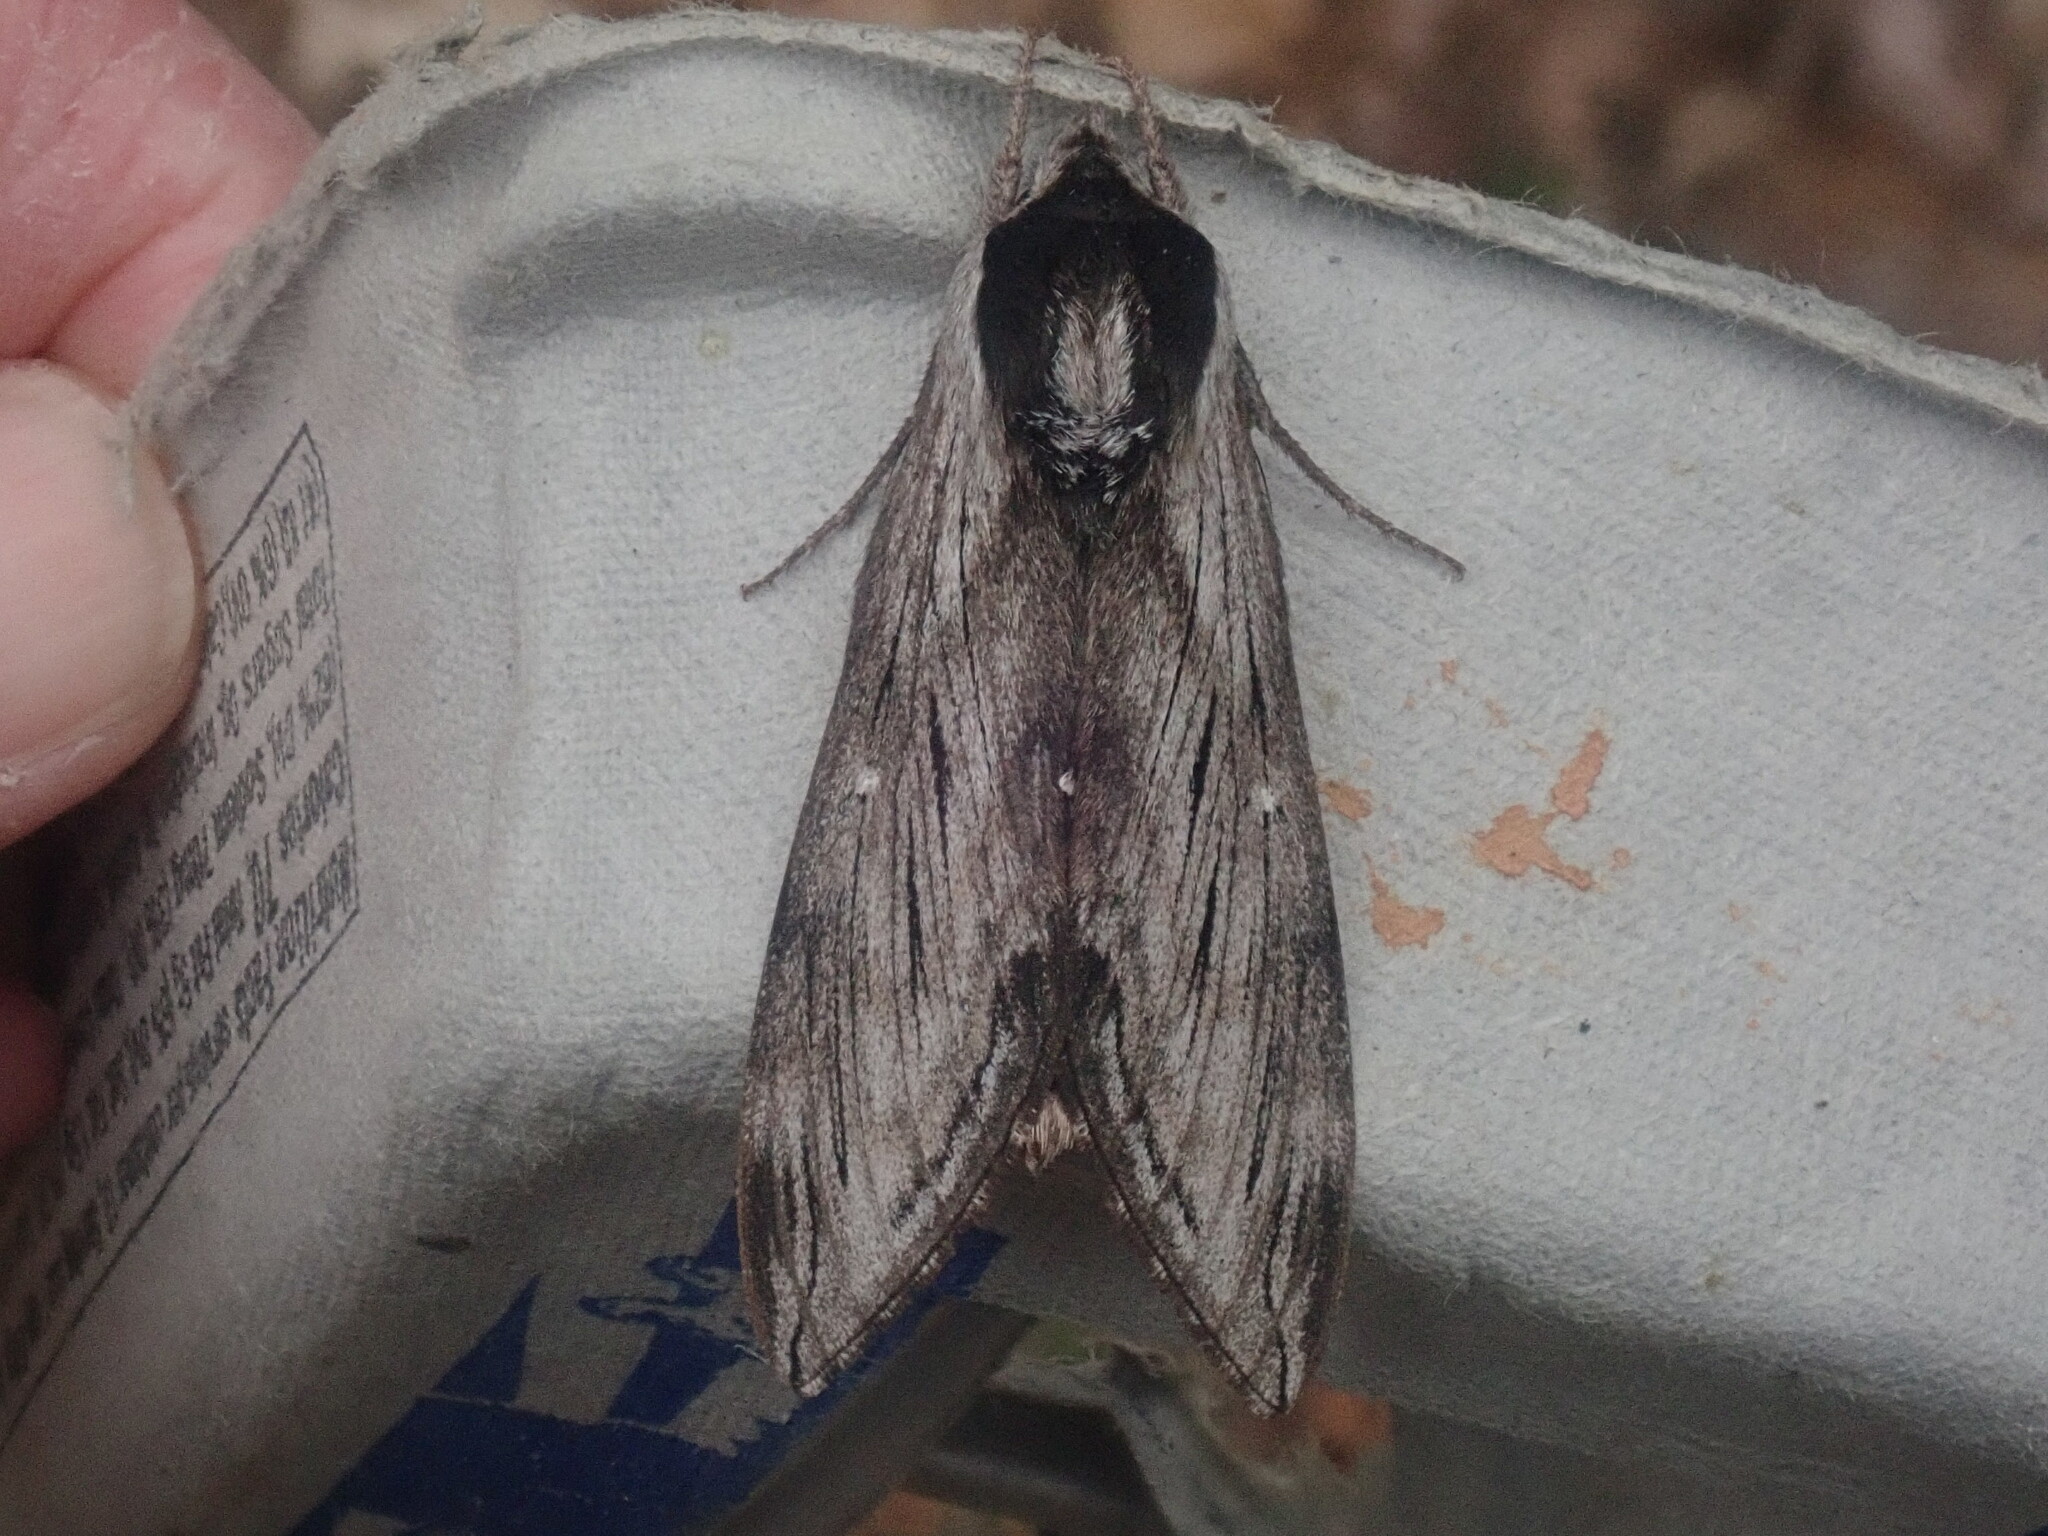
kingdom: Animalia
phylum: Arthropoda
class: Insecta
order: Lepidoptera
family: Sphingidae
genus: Sphinx
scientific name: Sphinx
